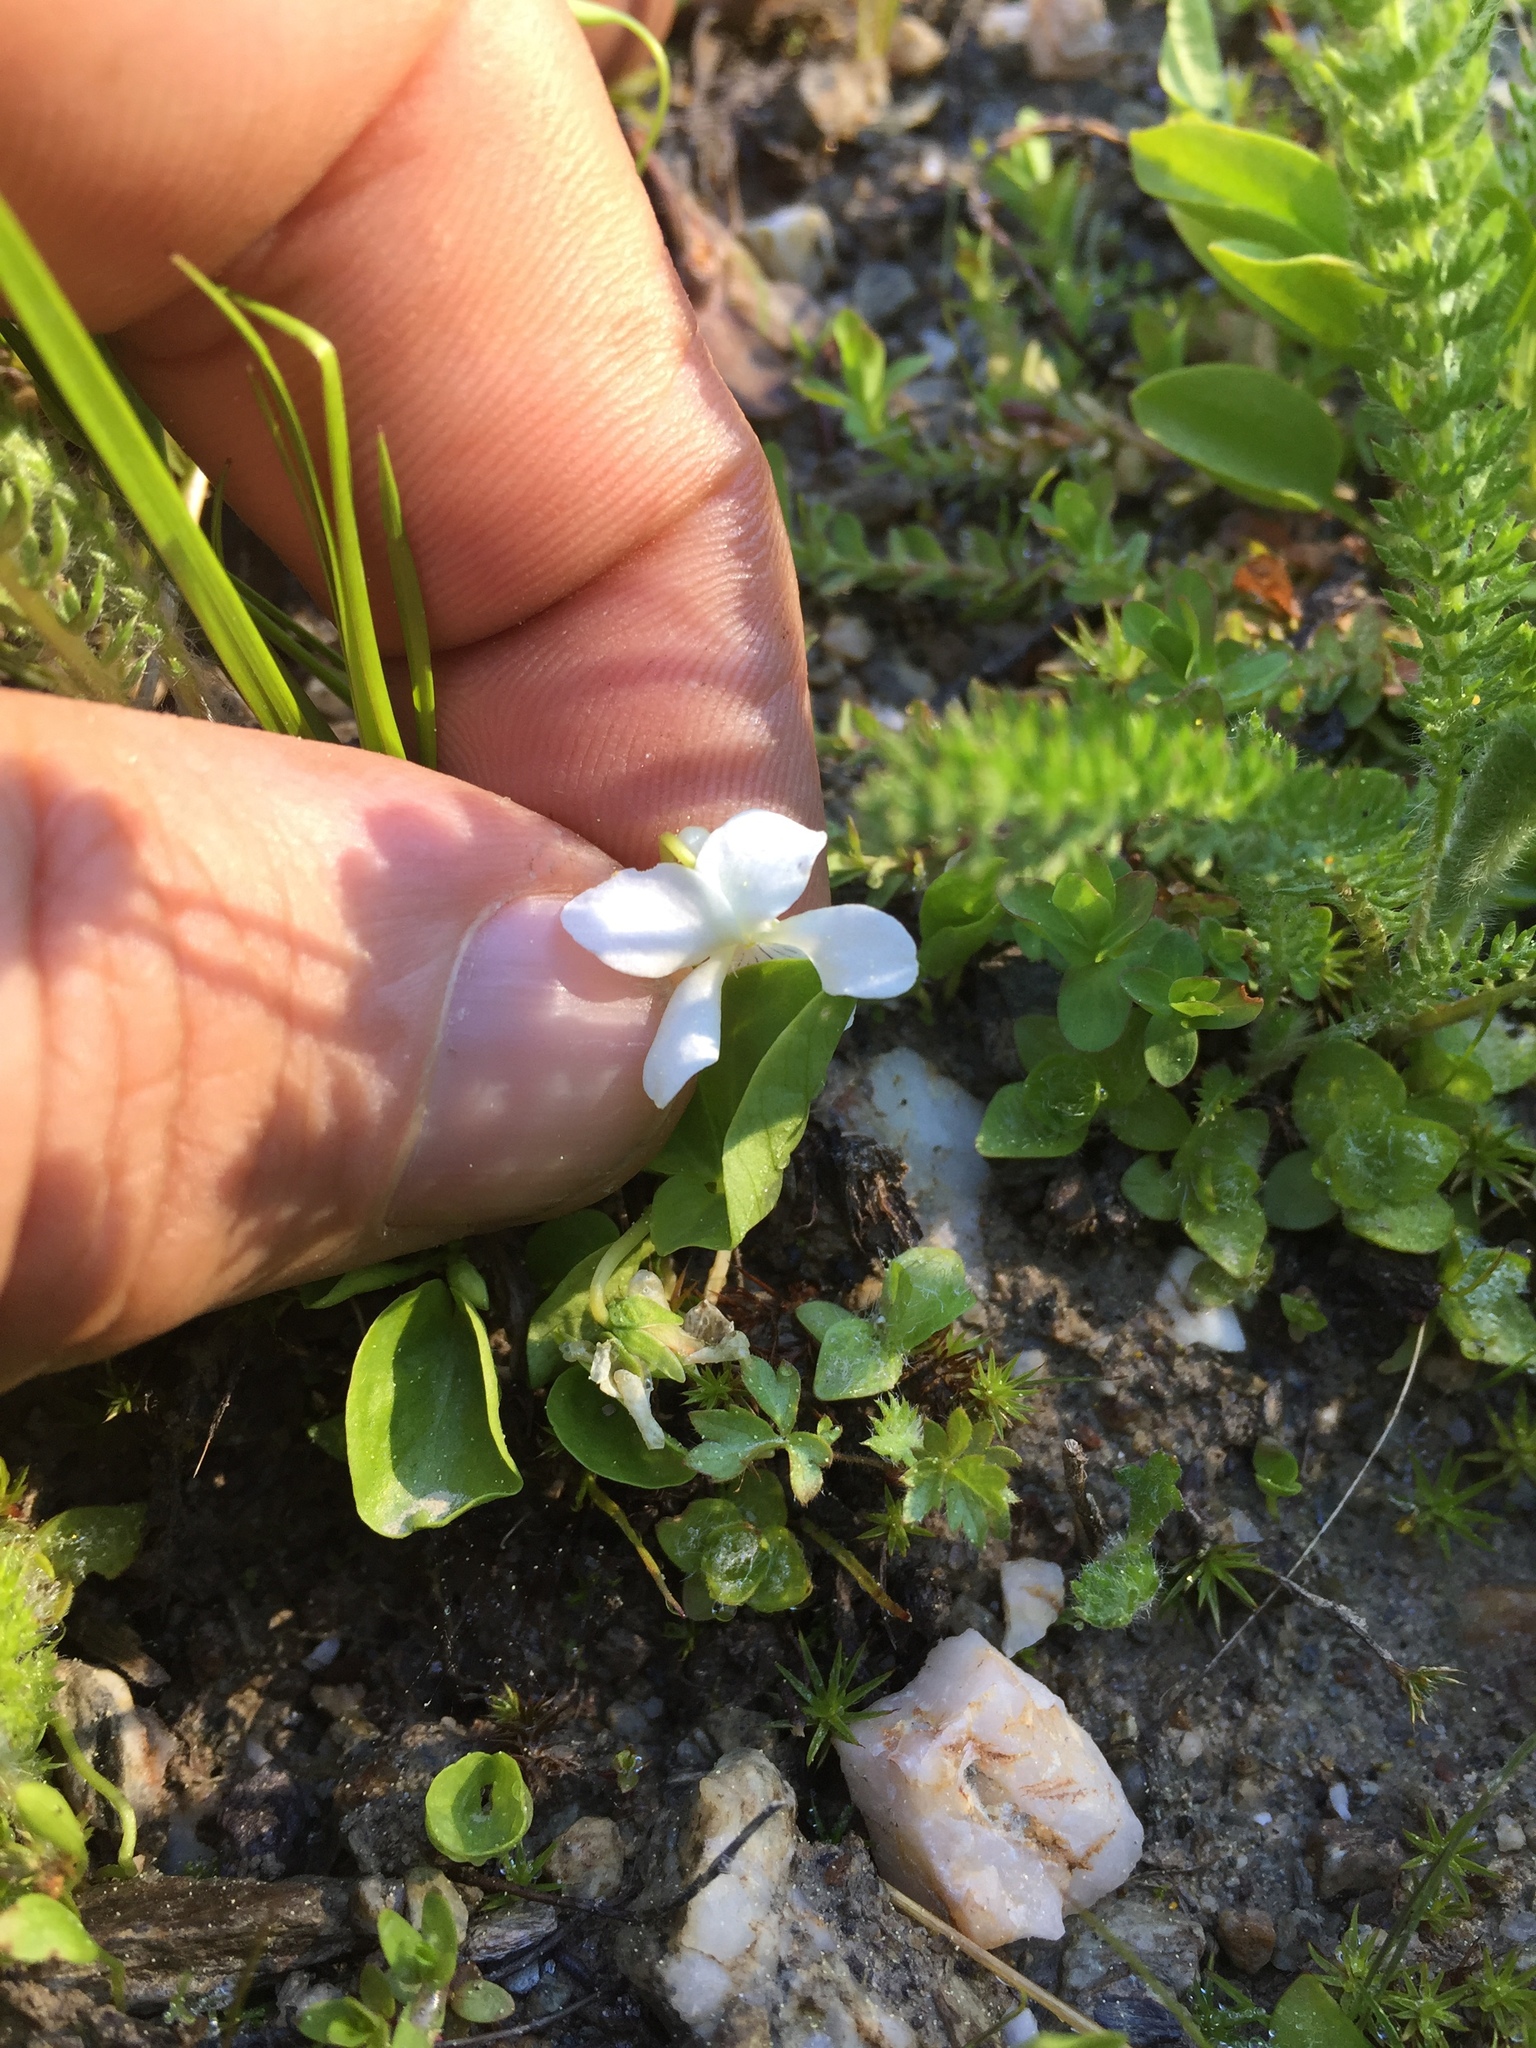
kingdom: Plantae
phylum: Tracheophyta
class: Magnoliopsida
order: Malpighiales
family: Violaceae
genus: Viola
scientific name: Viola macloskeyi
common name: Macloskey's violet
